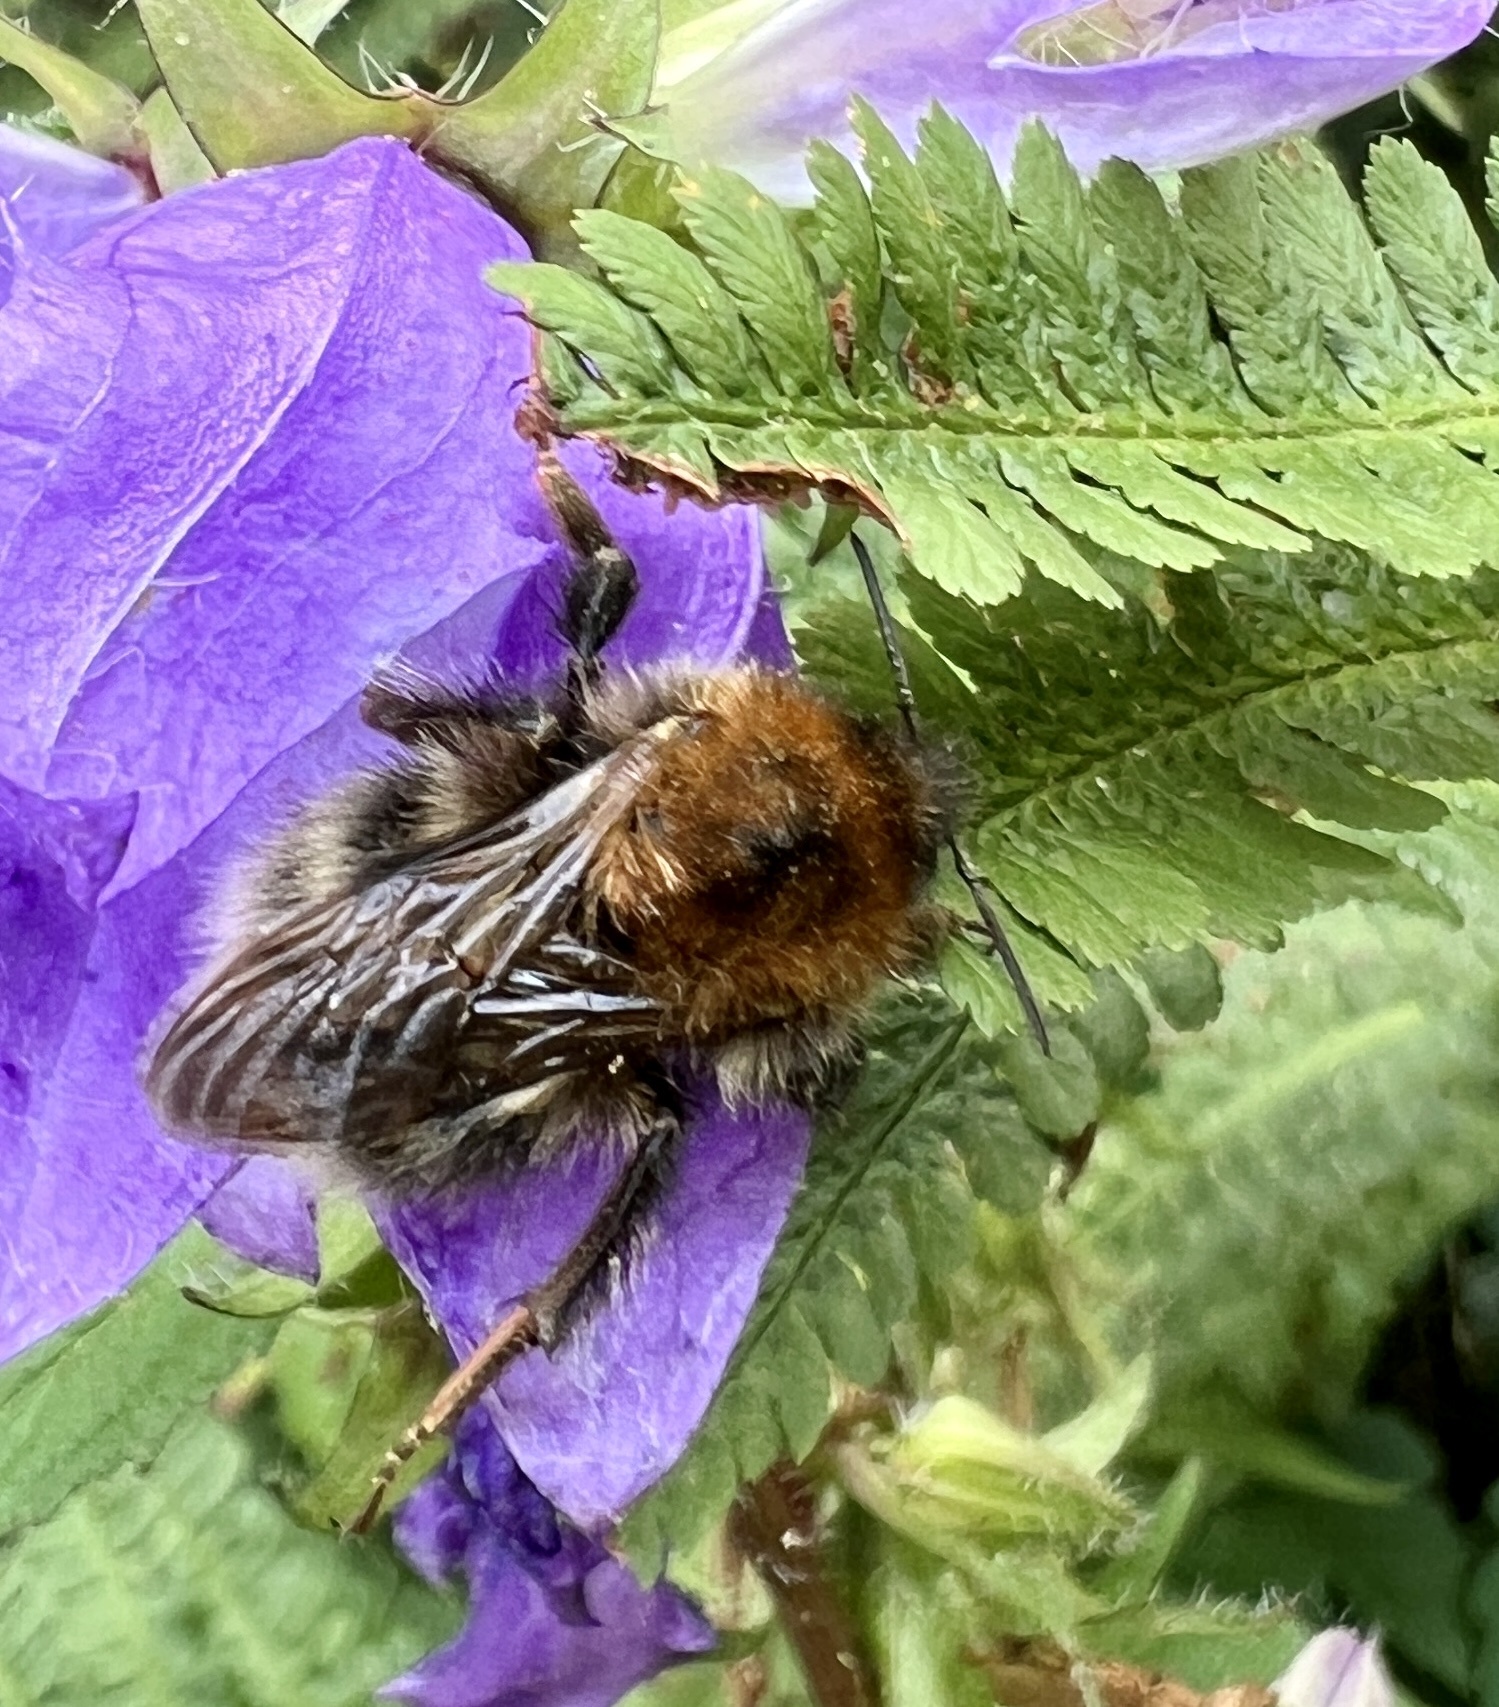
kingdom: Animalia
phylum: Arthropoda
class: Insecta
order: Hymenoptera
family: Apidae
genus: Bombus
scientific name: Bombus hypnorum
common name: New garden bumblebee
